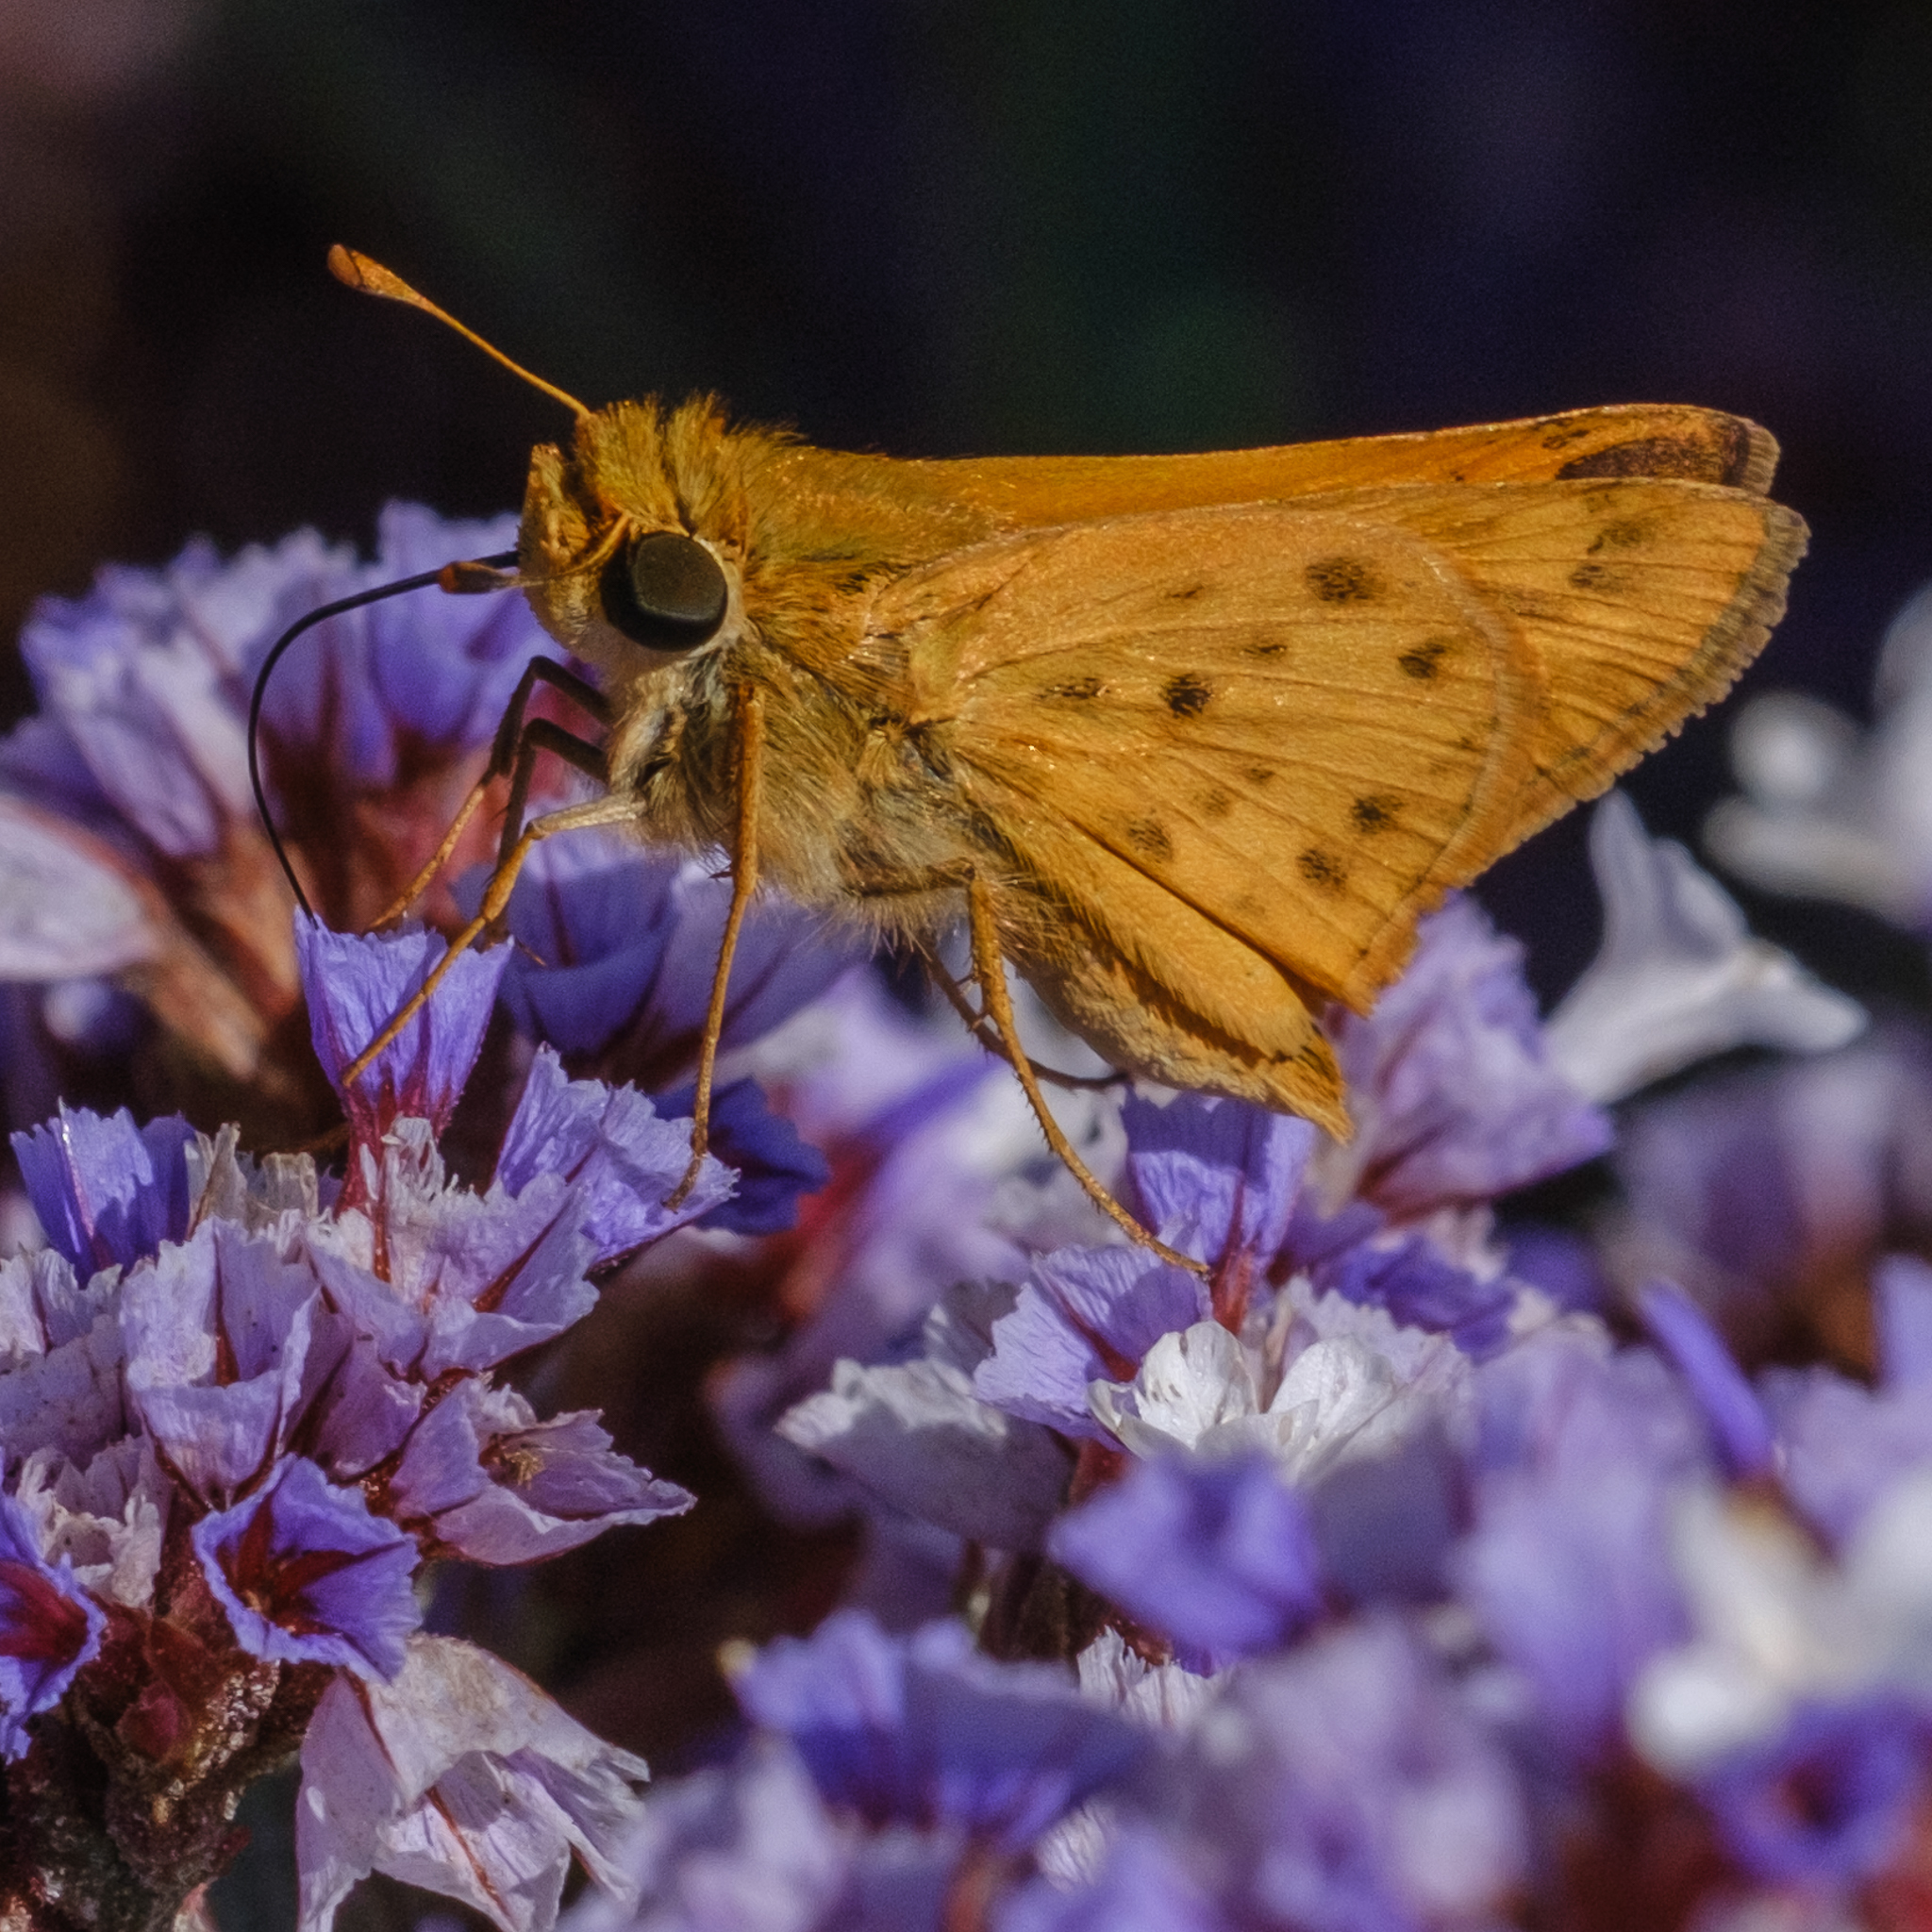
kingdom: Animalia
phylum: Arthropoda
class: Insecta
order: Lepidoptera
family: Hesperiidae
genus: Hylephila
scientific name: Hylephila phyleus
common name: Fiery skipper
